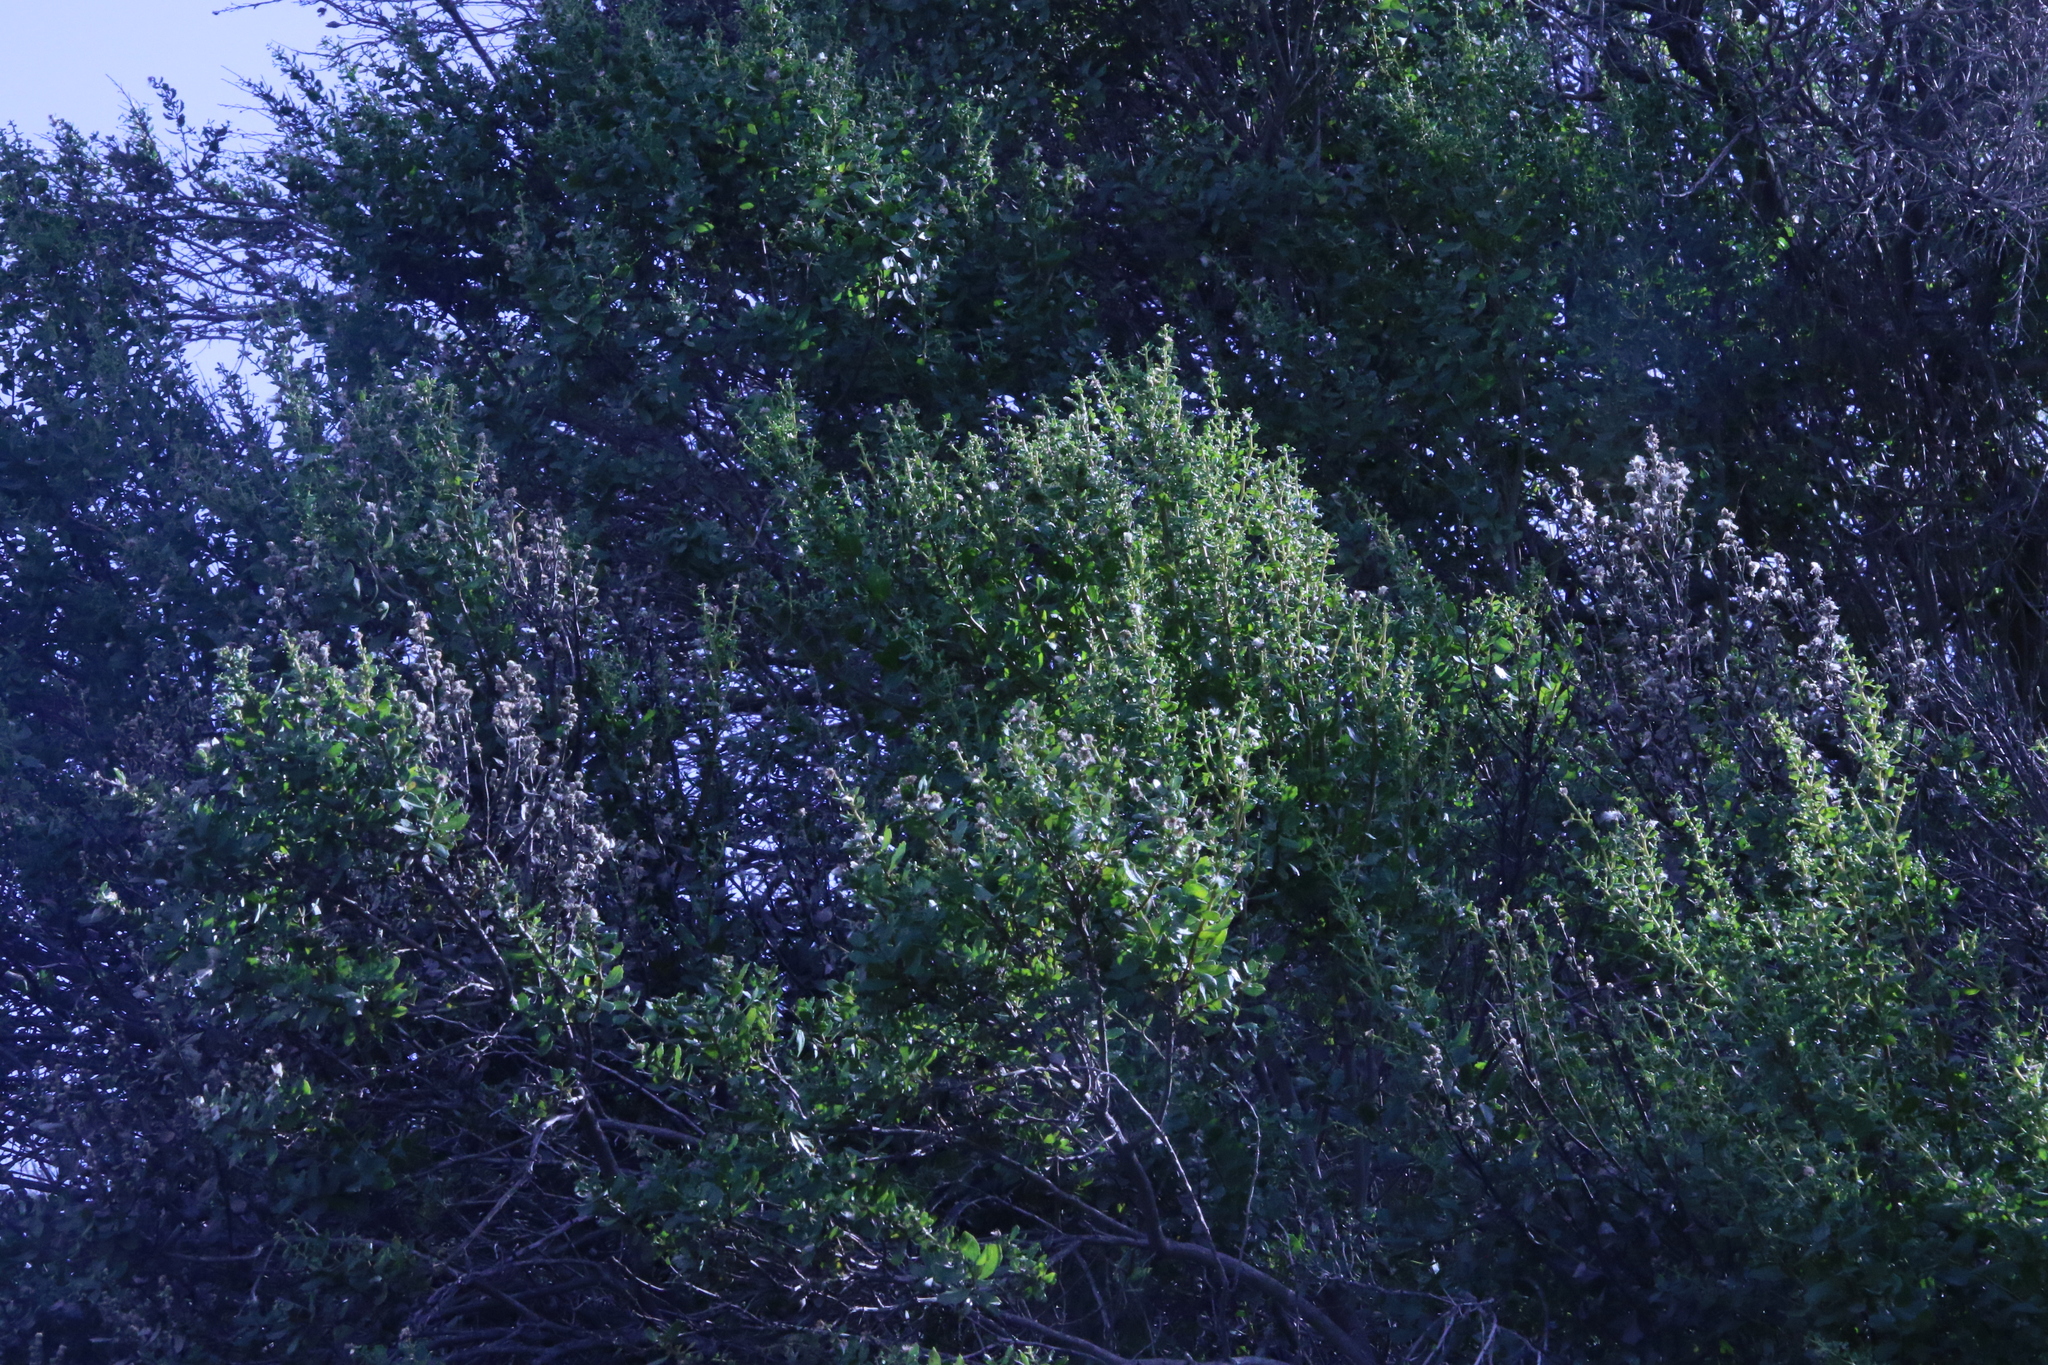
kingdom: Plantae
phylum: Tracheophyta
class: Magnoliopsida
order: Asterales
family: Asteraceae
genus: Baccharis
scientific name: Baccharis pilularis
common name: Coyotebrush
